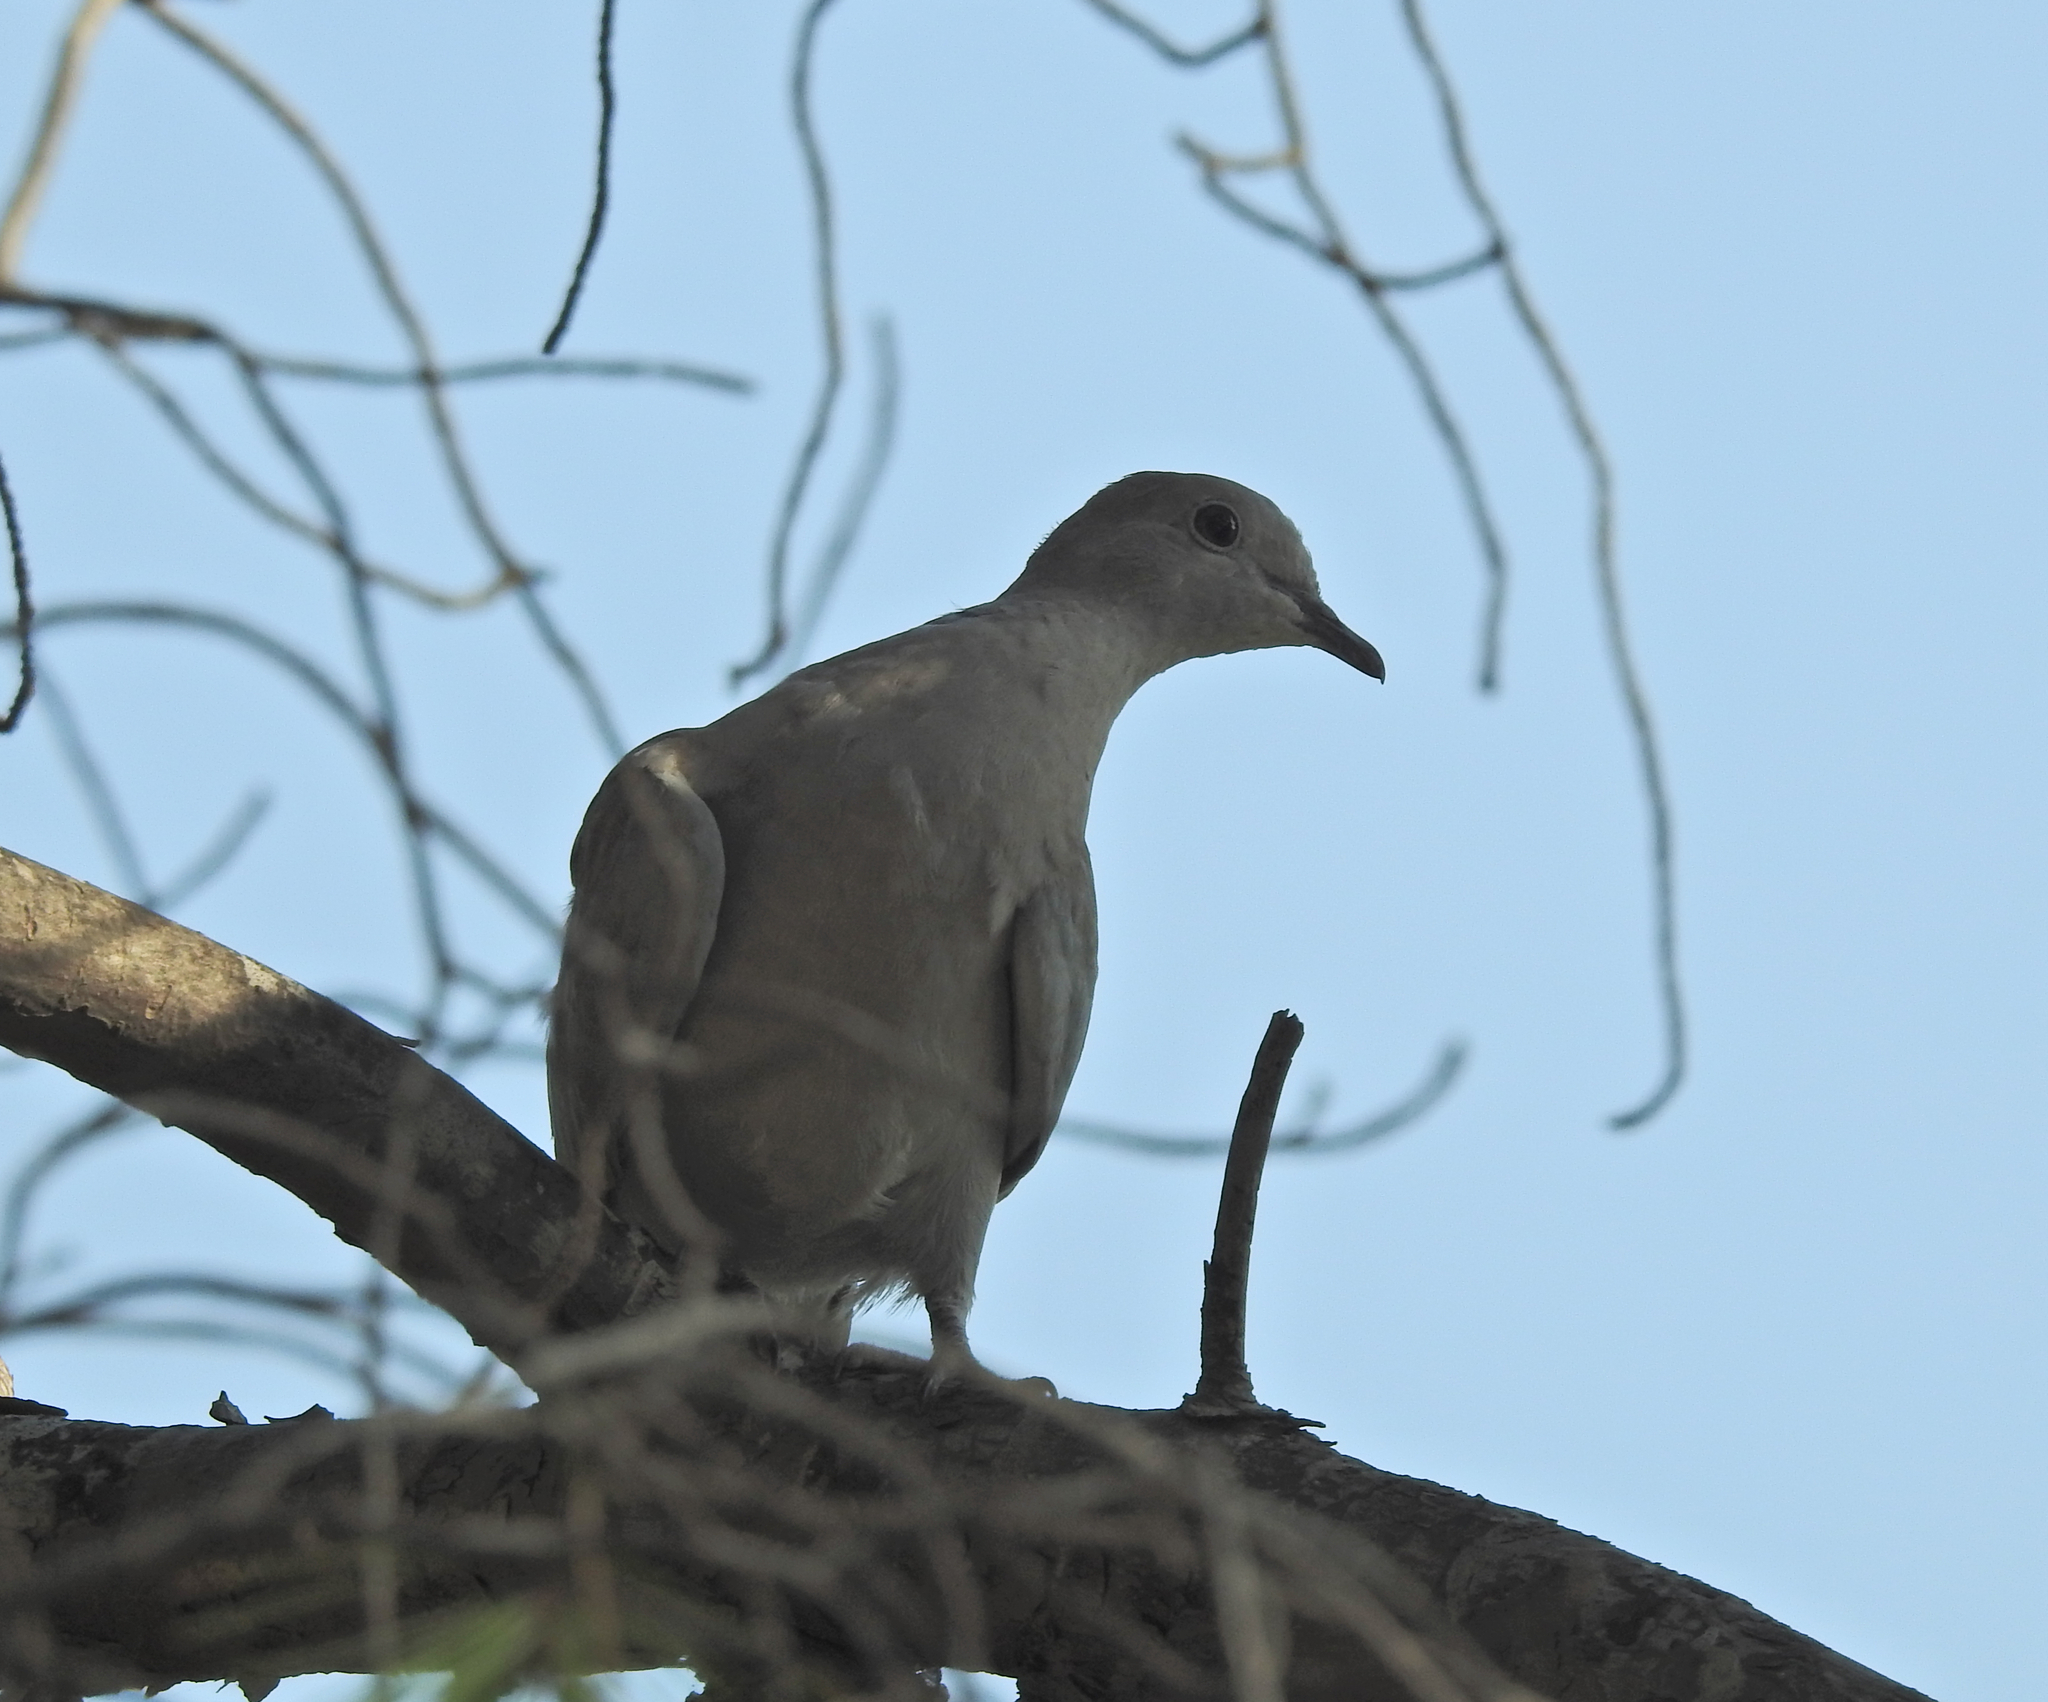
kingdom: Animalia
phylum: Chordata
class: Aves
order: Columbiformes
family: Columbidae
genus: Streptopelia
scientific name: Streptopelia decaocto
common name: Eurasian collared dove
